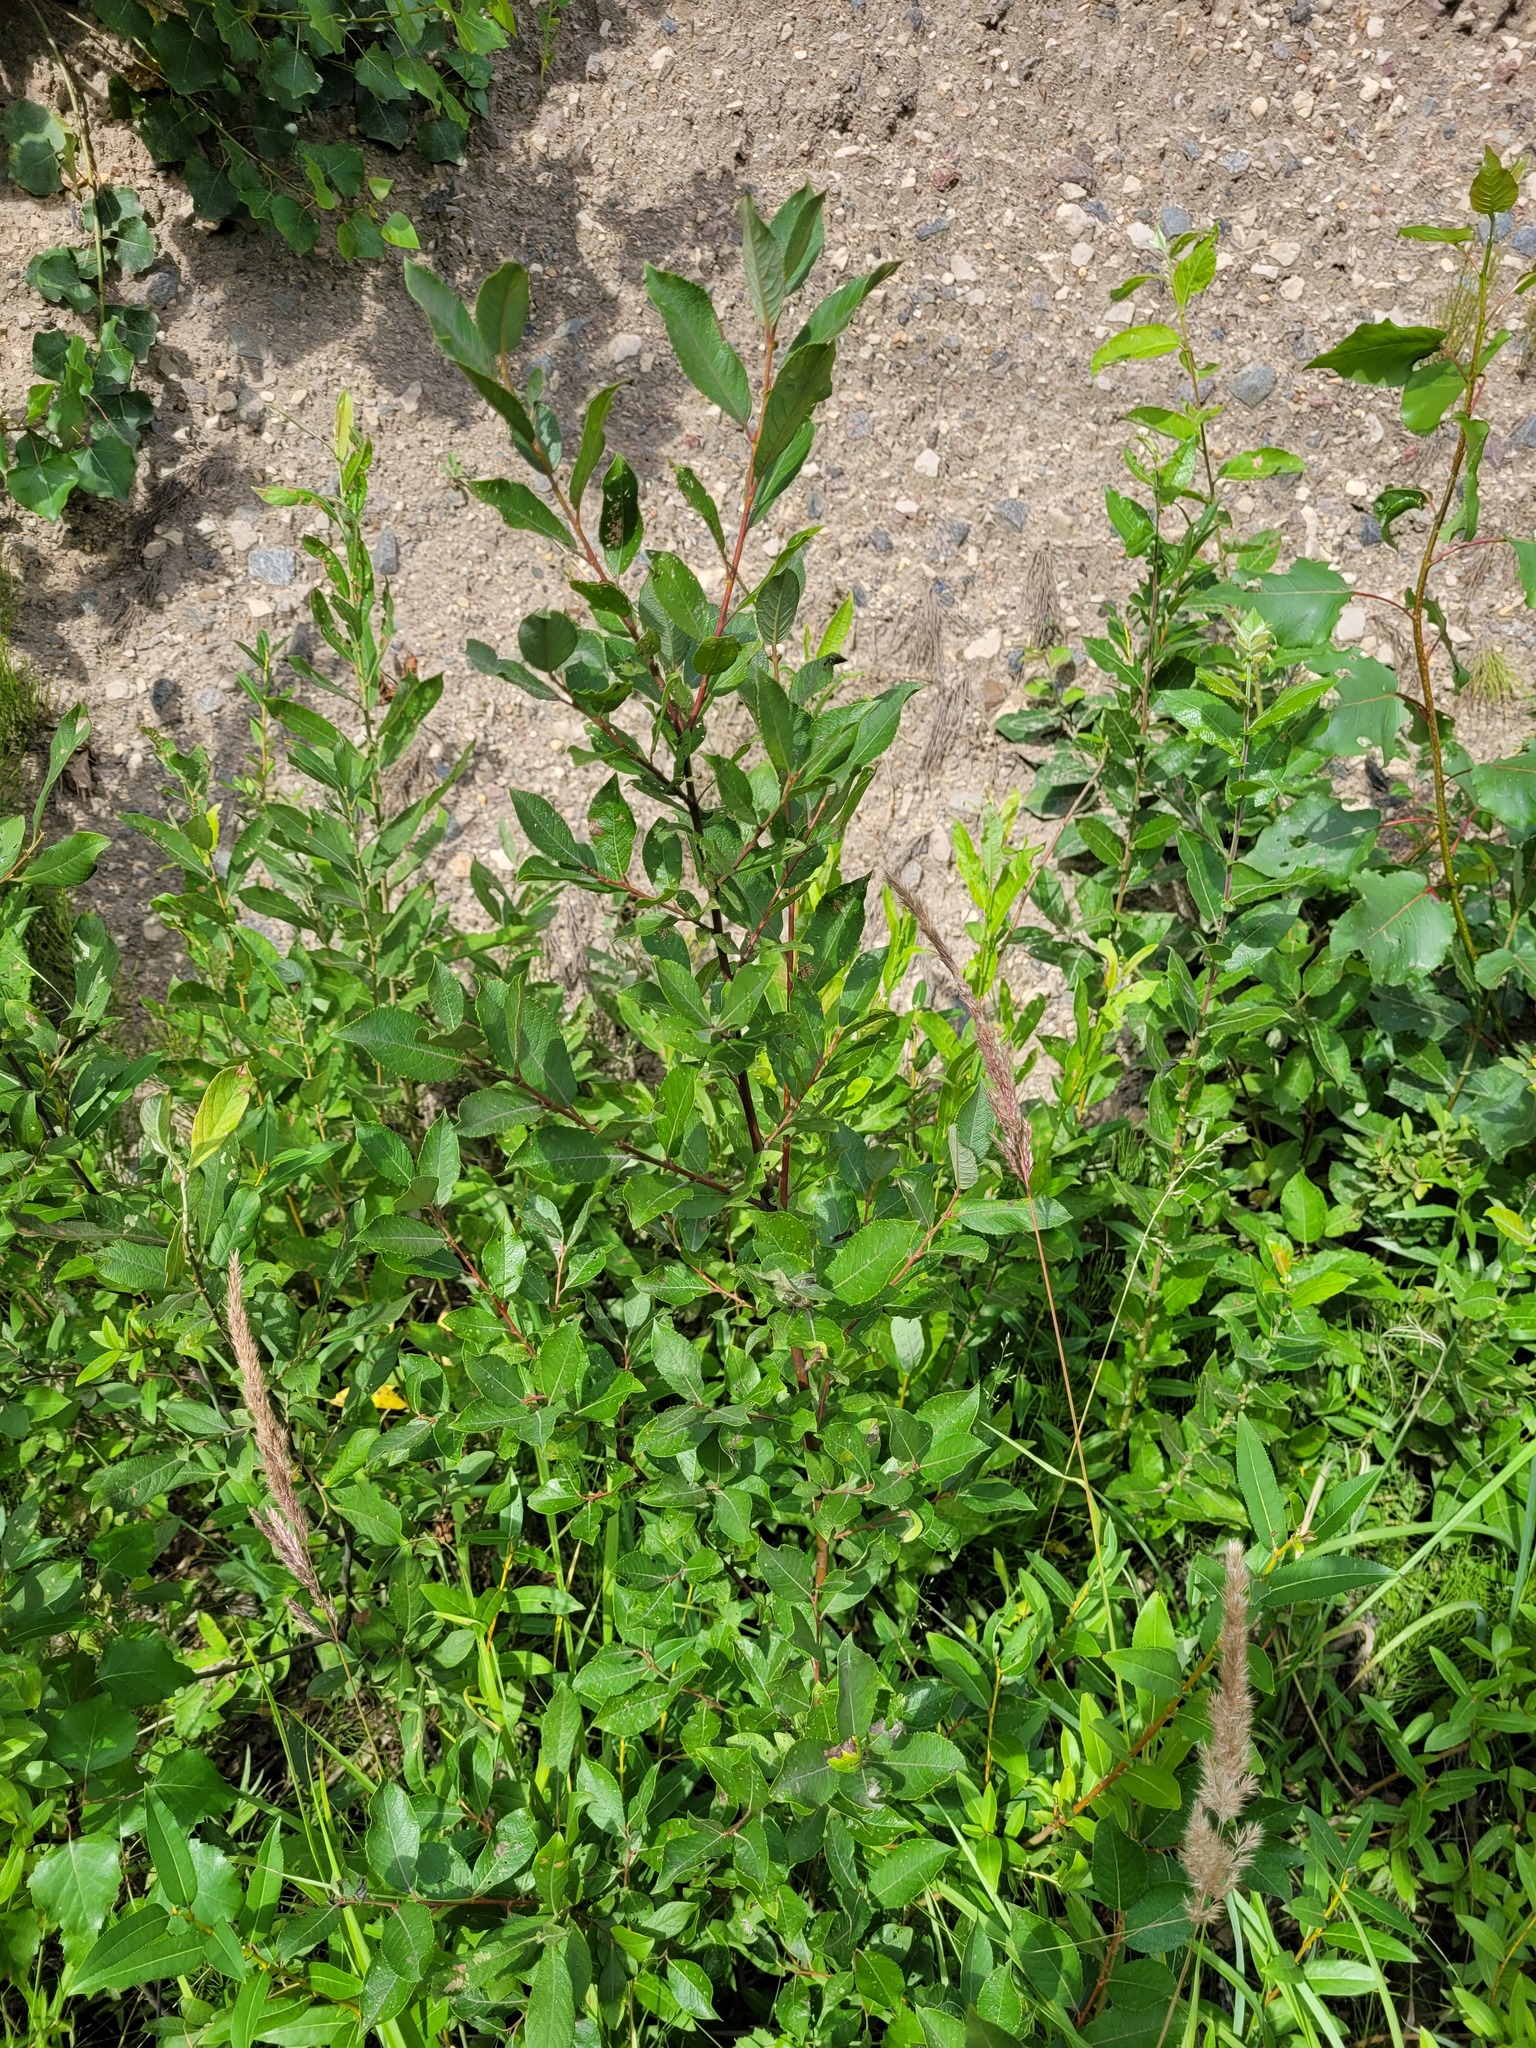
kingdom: Plantae
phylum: Tracheophyta
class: Magnoliopsida
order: Malpighiales
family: Salicaceae
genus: Salix
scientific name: Salix myrsinifolia
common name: Dark-leaved willow
